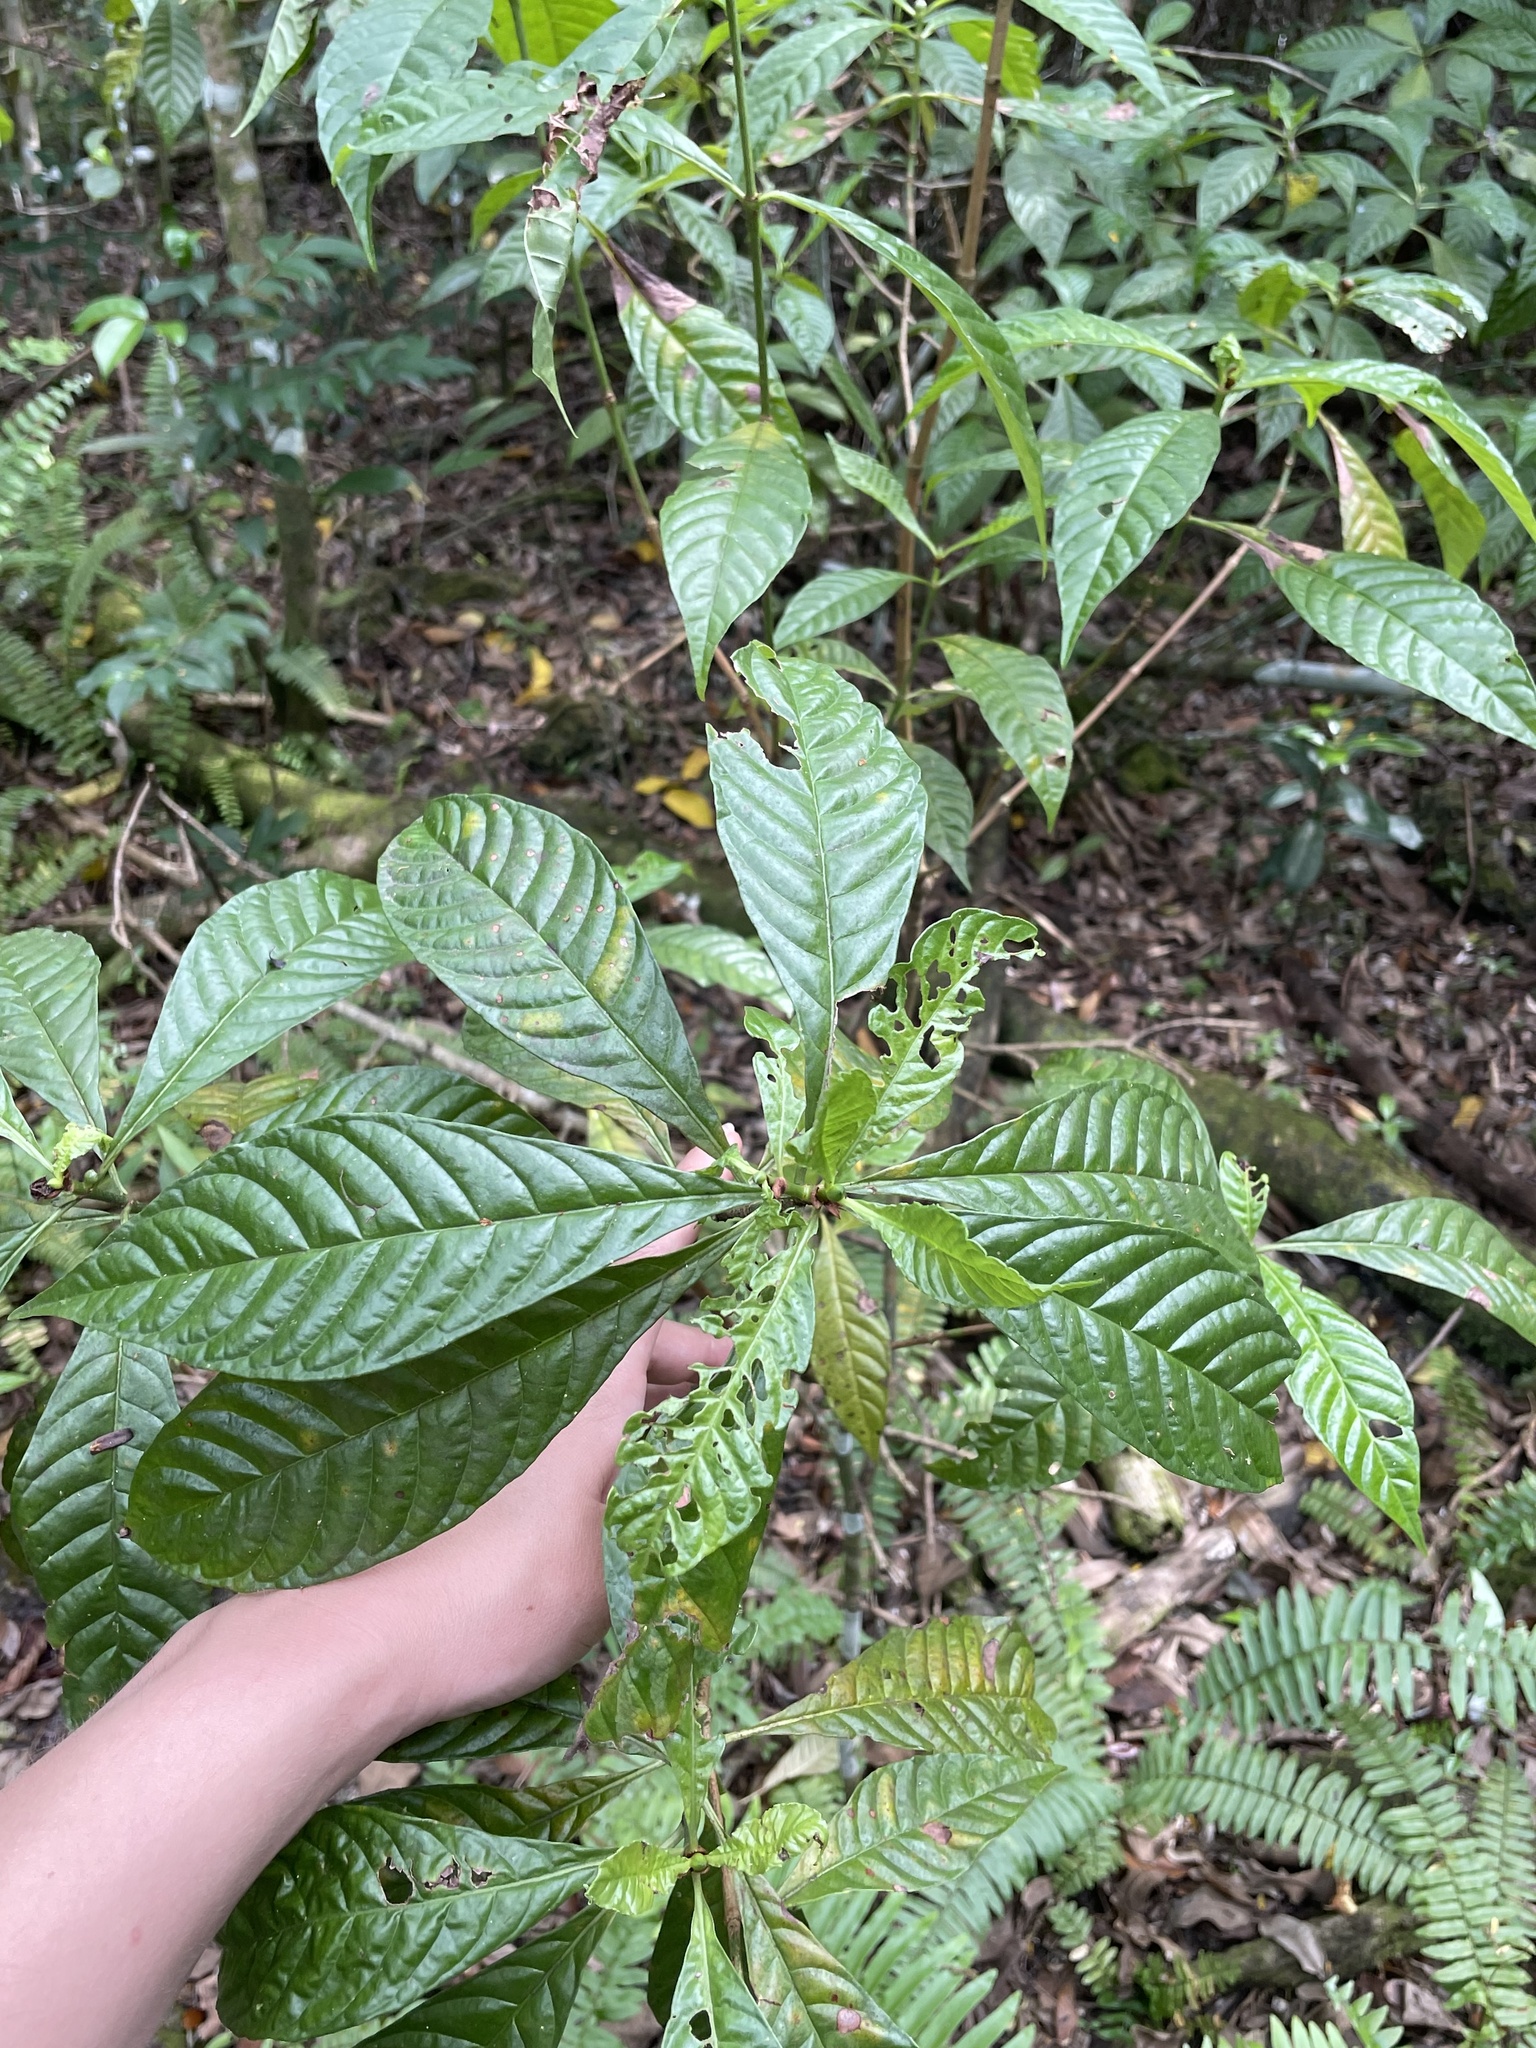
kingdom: Plantae
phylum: Tracheophyta
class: Magnoliopsida
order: Gentianales
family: Rubiaceae
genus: Psychotria
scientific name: Psychotria nervosa
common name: Bastard cankerberry
